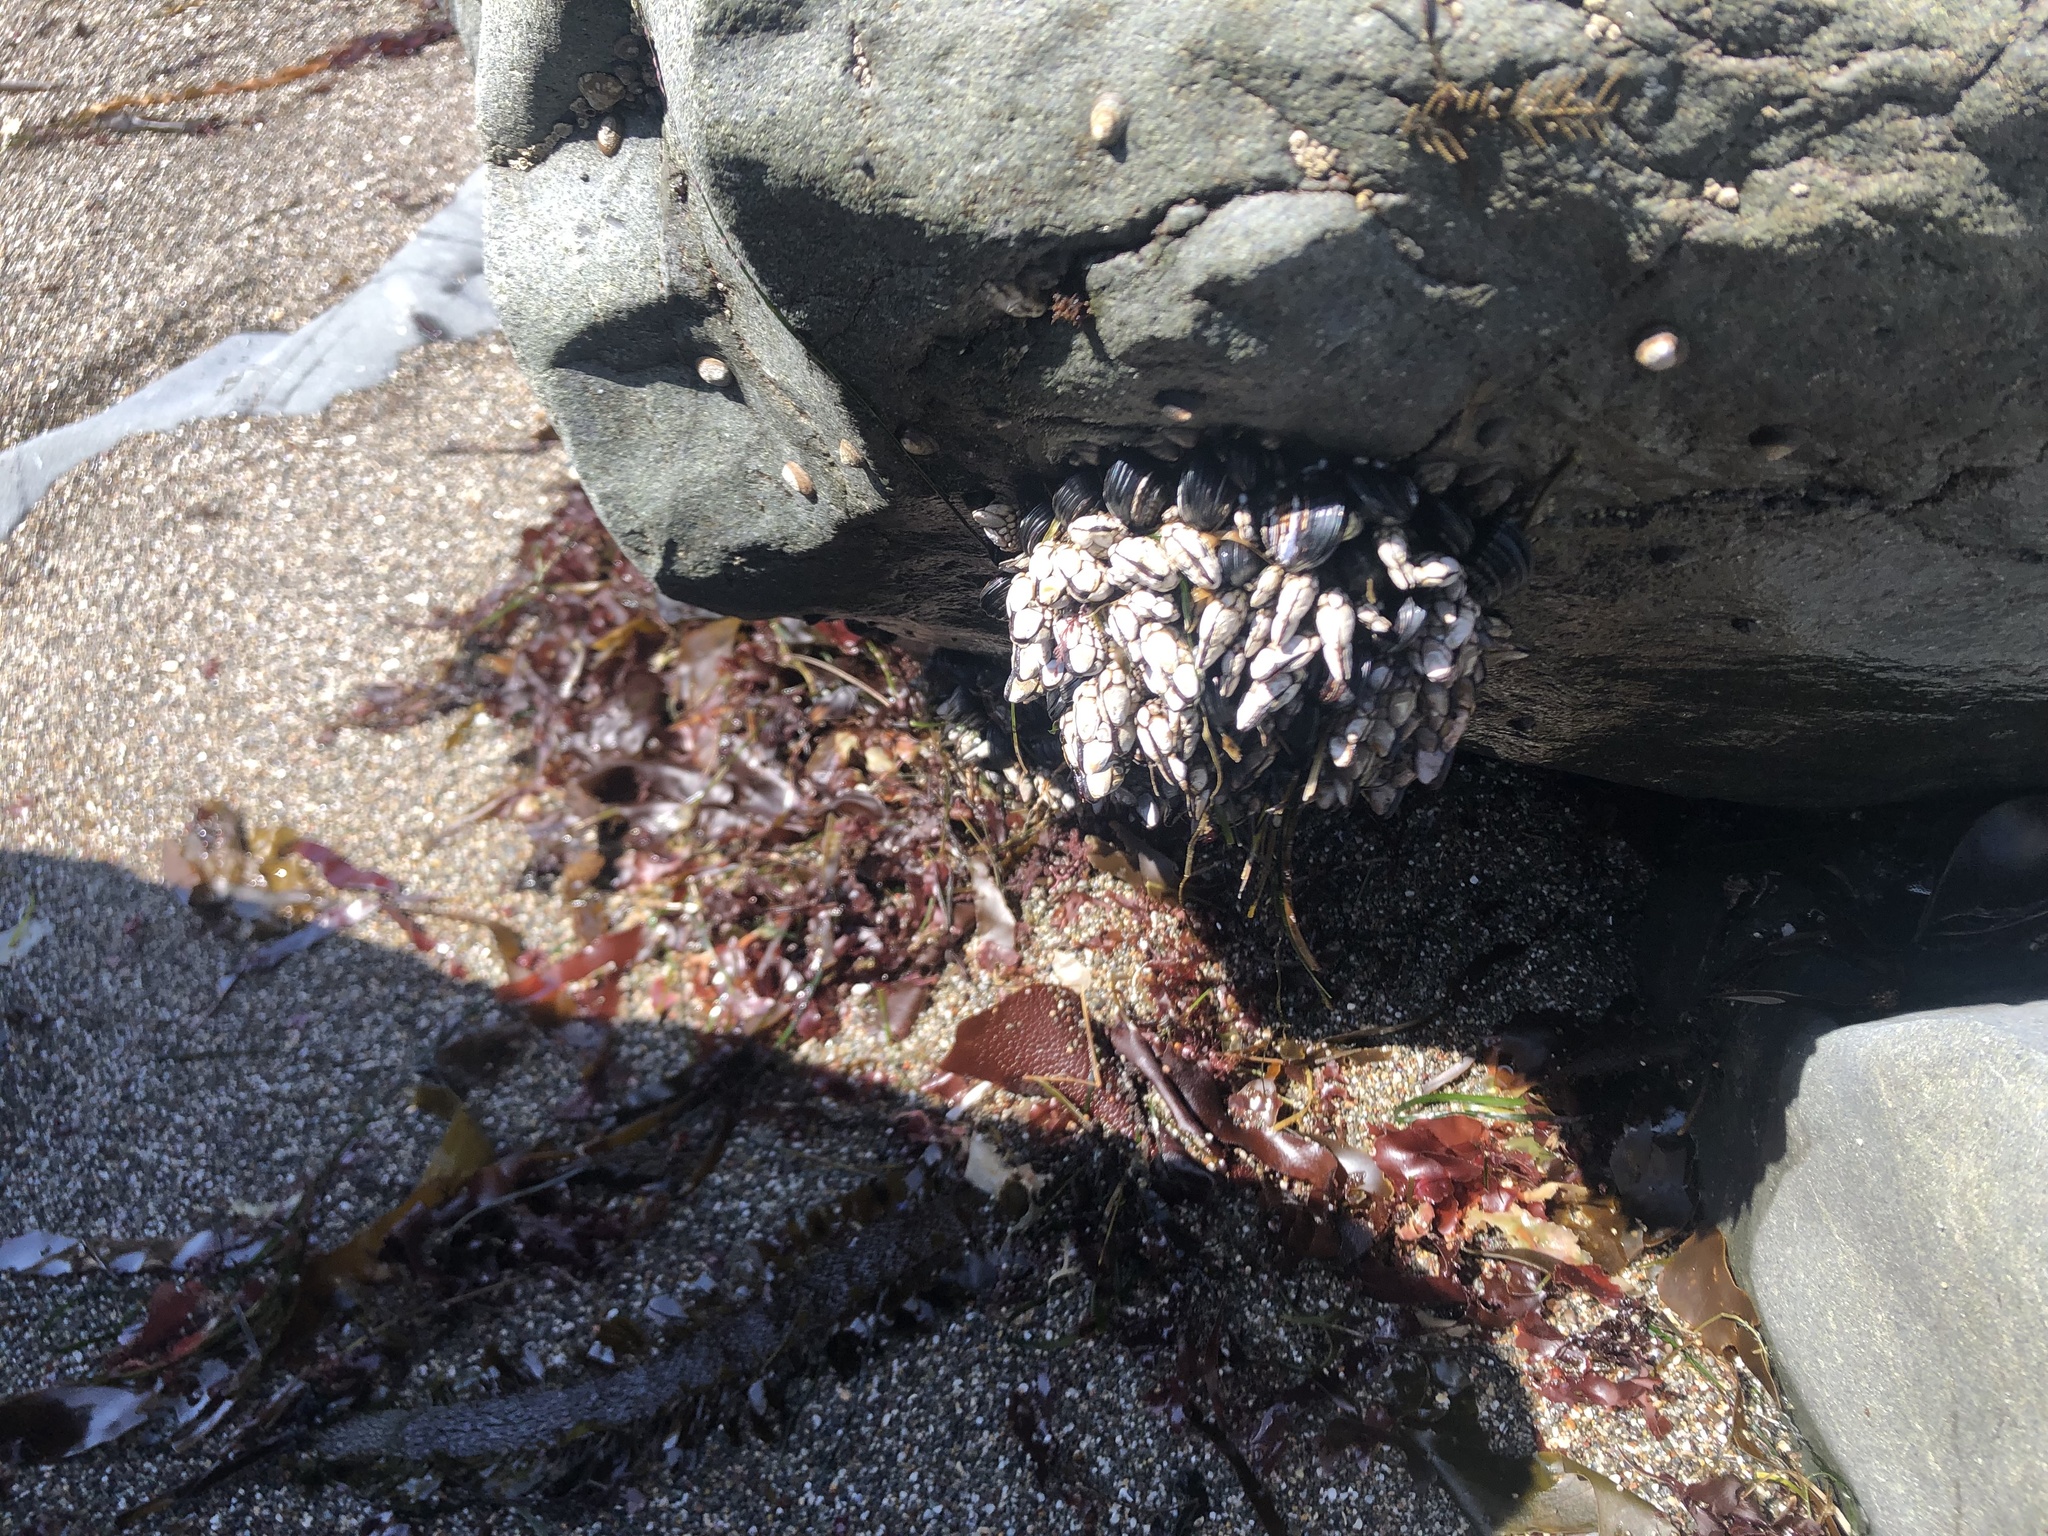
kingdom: Animalia
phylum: Arthropoda
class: Maxillopoda
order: Pedunculata
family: Pollicipedidae
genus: Pollicipes
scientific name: Pollicipes polymerus
